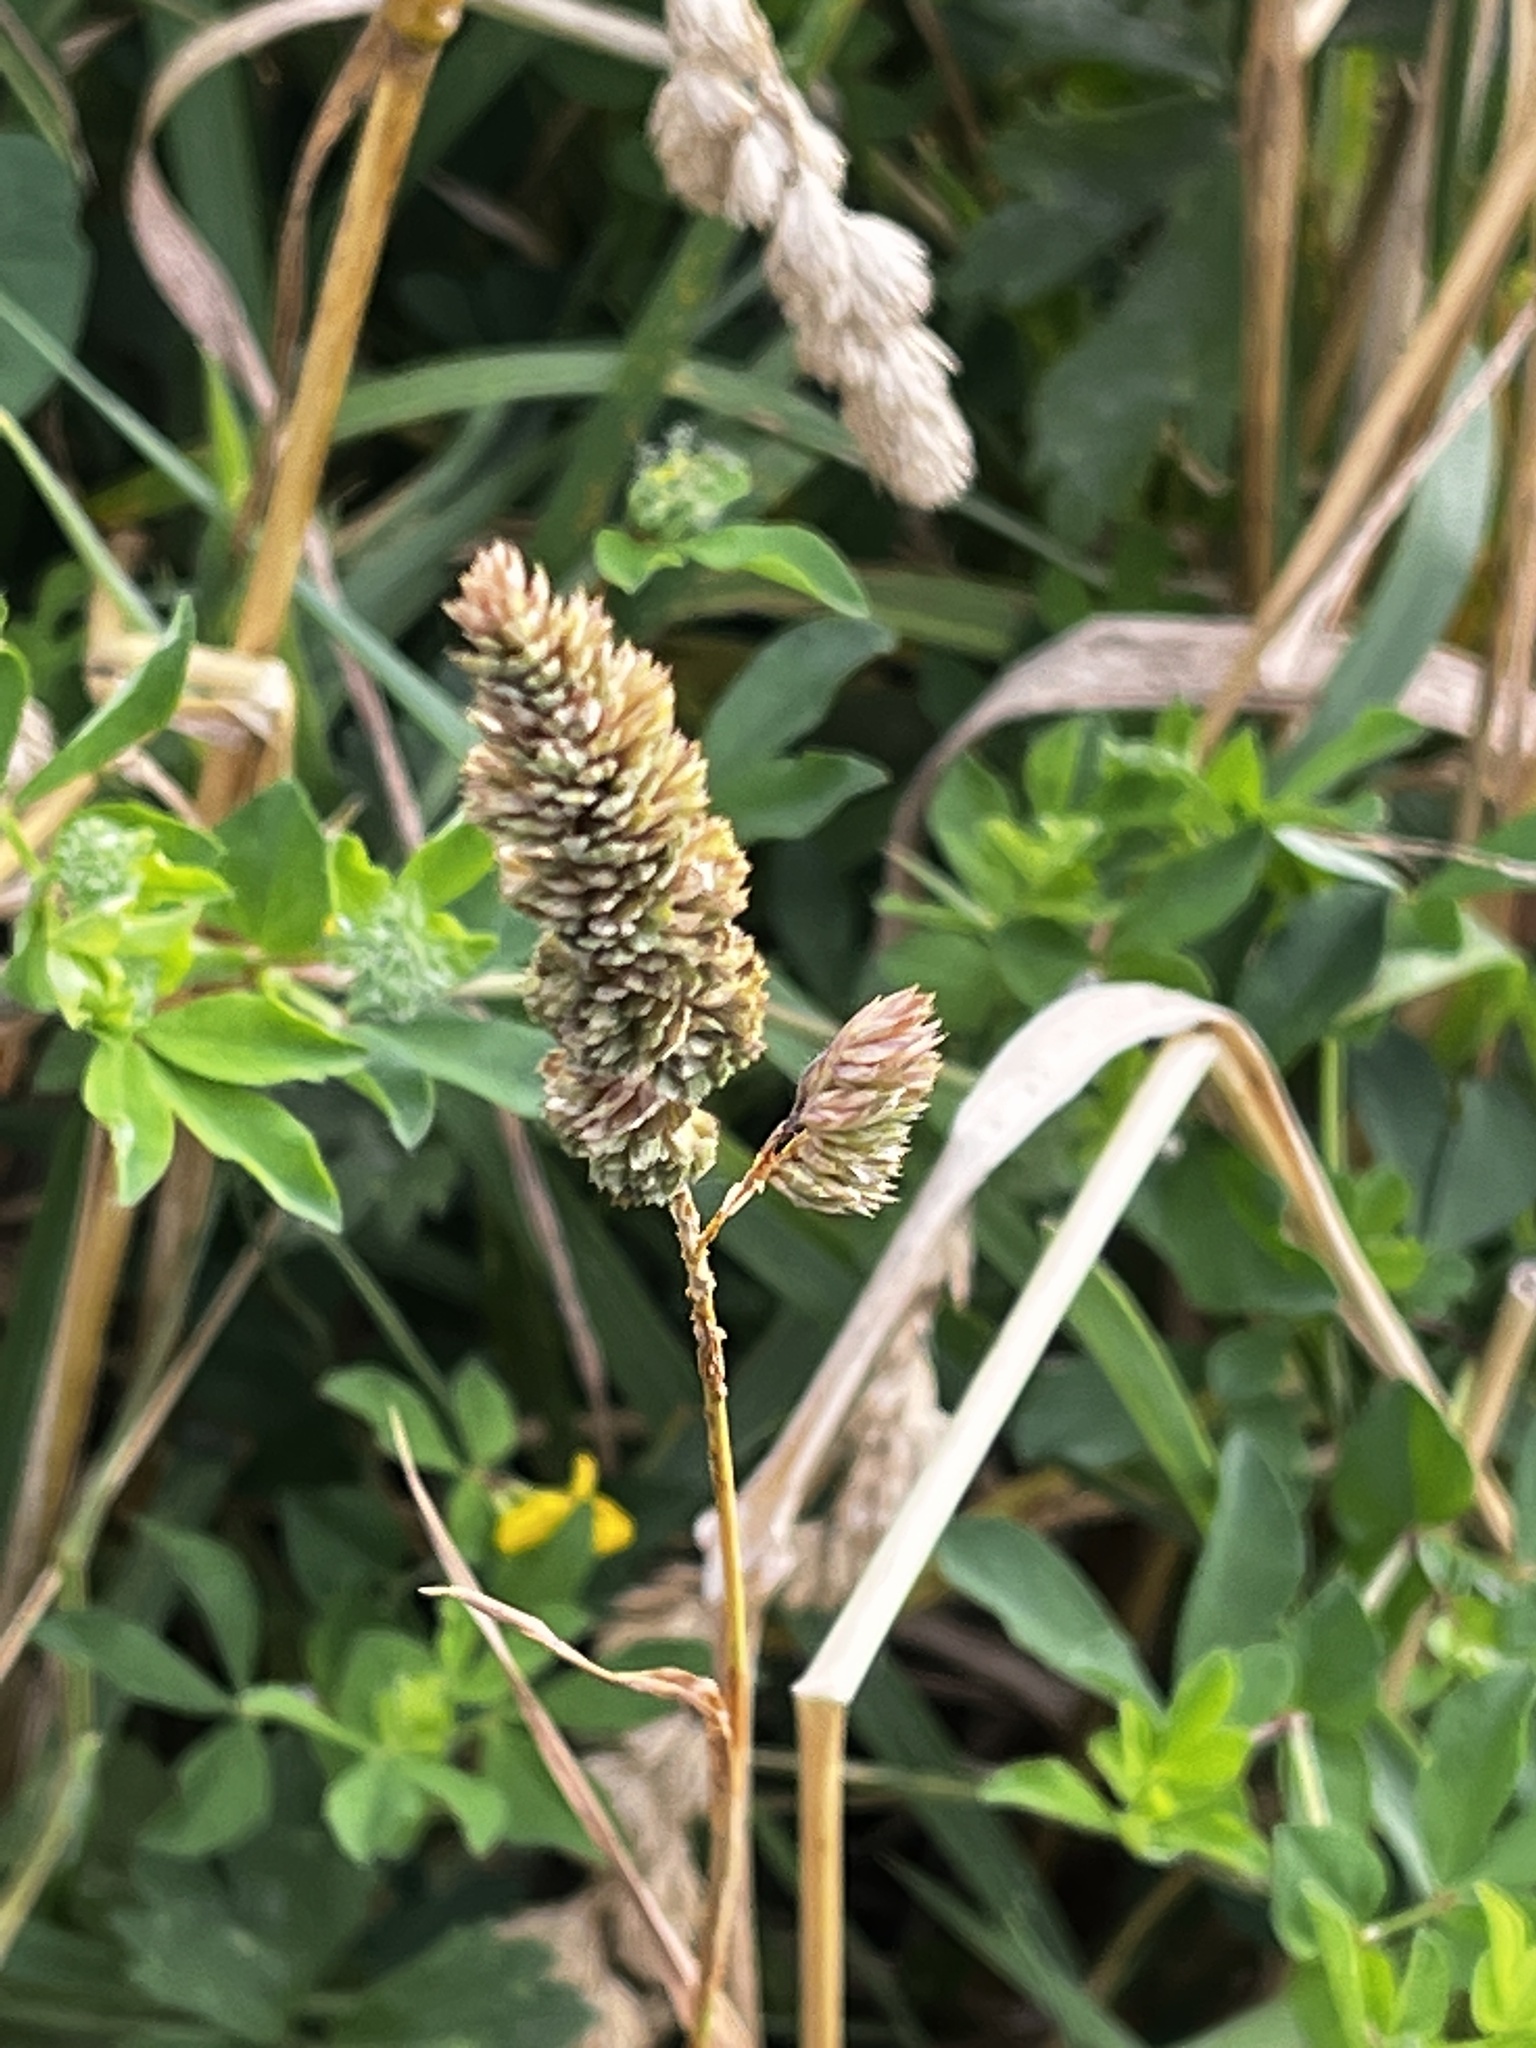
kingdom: Plantae
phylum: Tracheophyta
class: Liliopsida
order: Poales
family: Poaceae
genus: Dactylis
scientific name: Dactylis glomerata
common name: Orchardgrass
